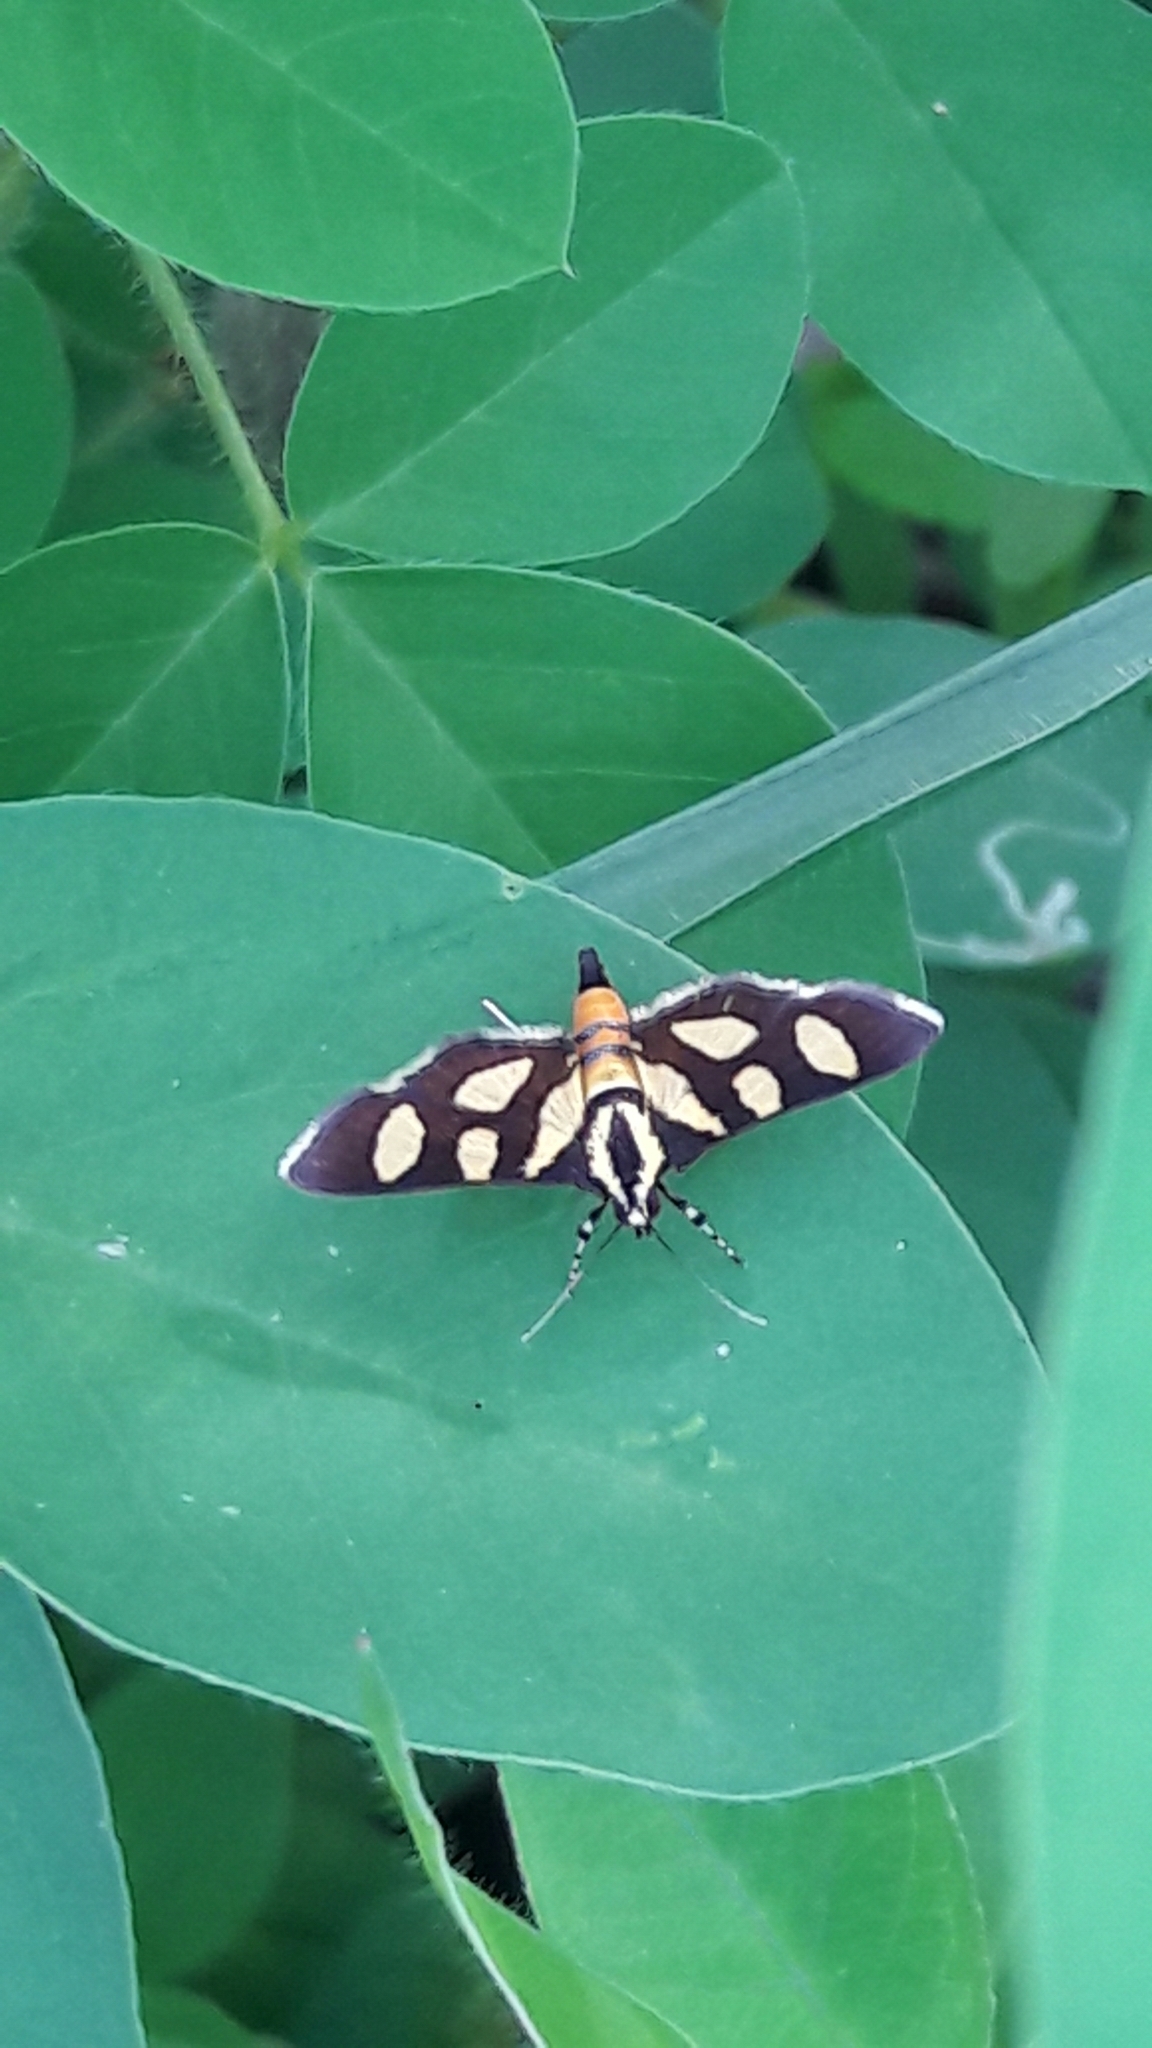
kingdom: Animalia
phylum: Arthropoda
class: Insecta
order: Lepidoptera
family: Crambidae
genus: Syngamia
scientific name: Syngamia florella
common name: Orange-spotted flower moth
